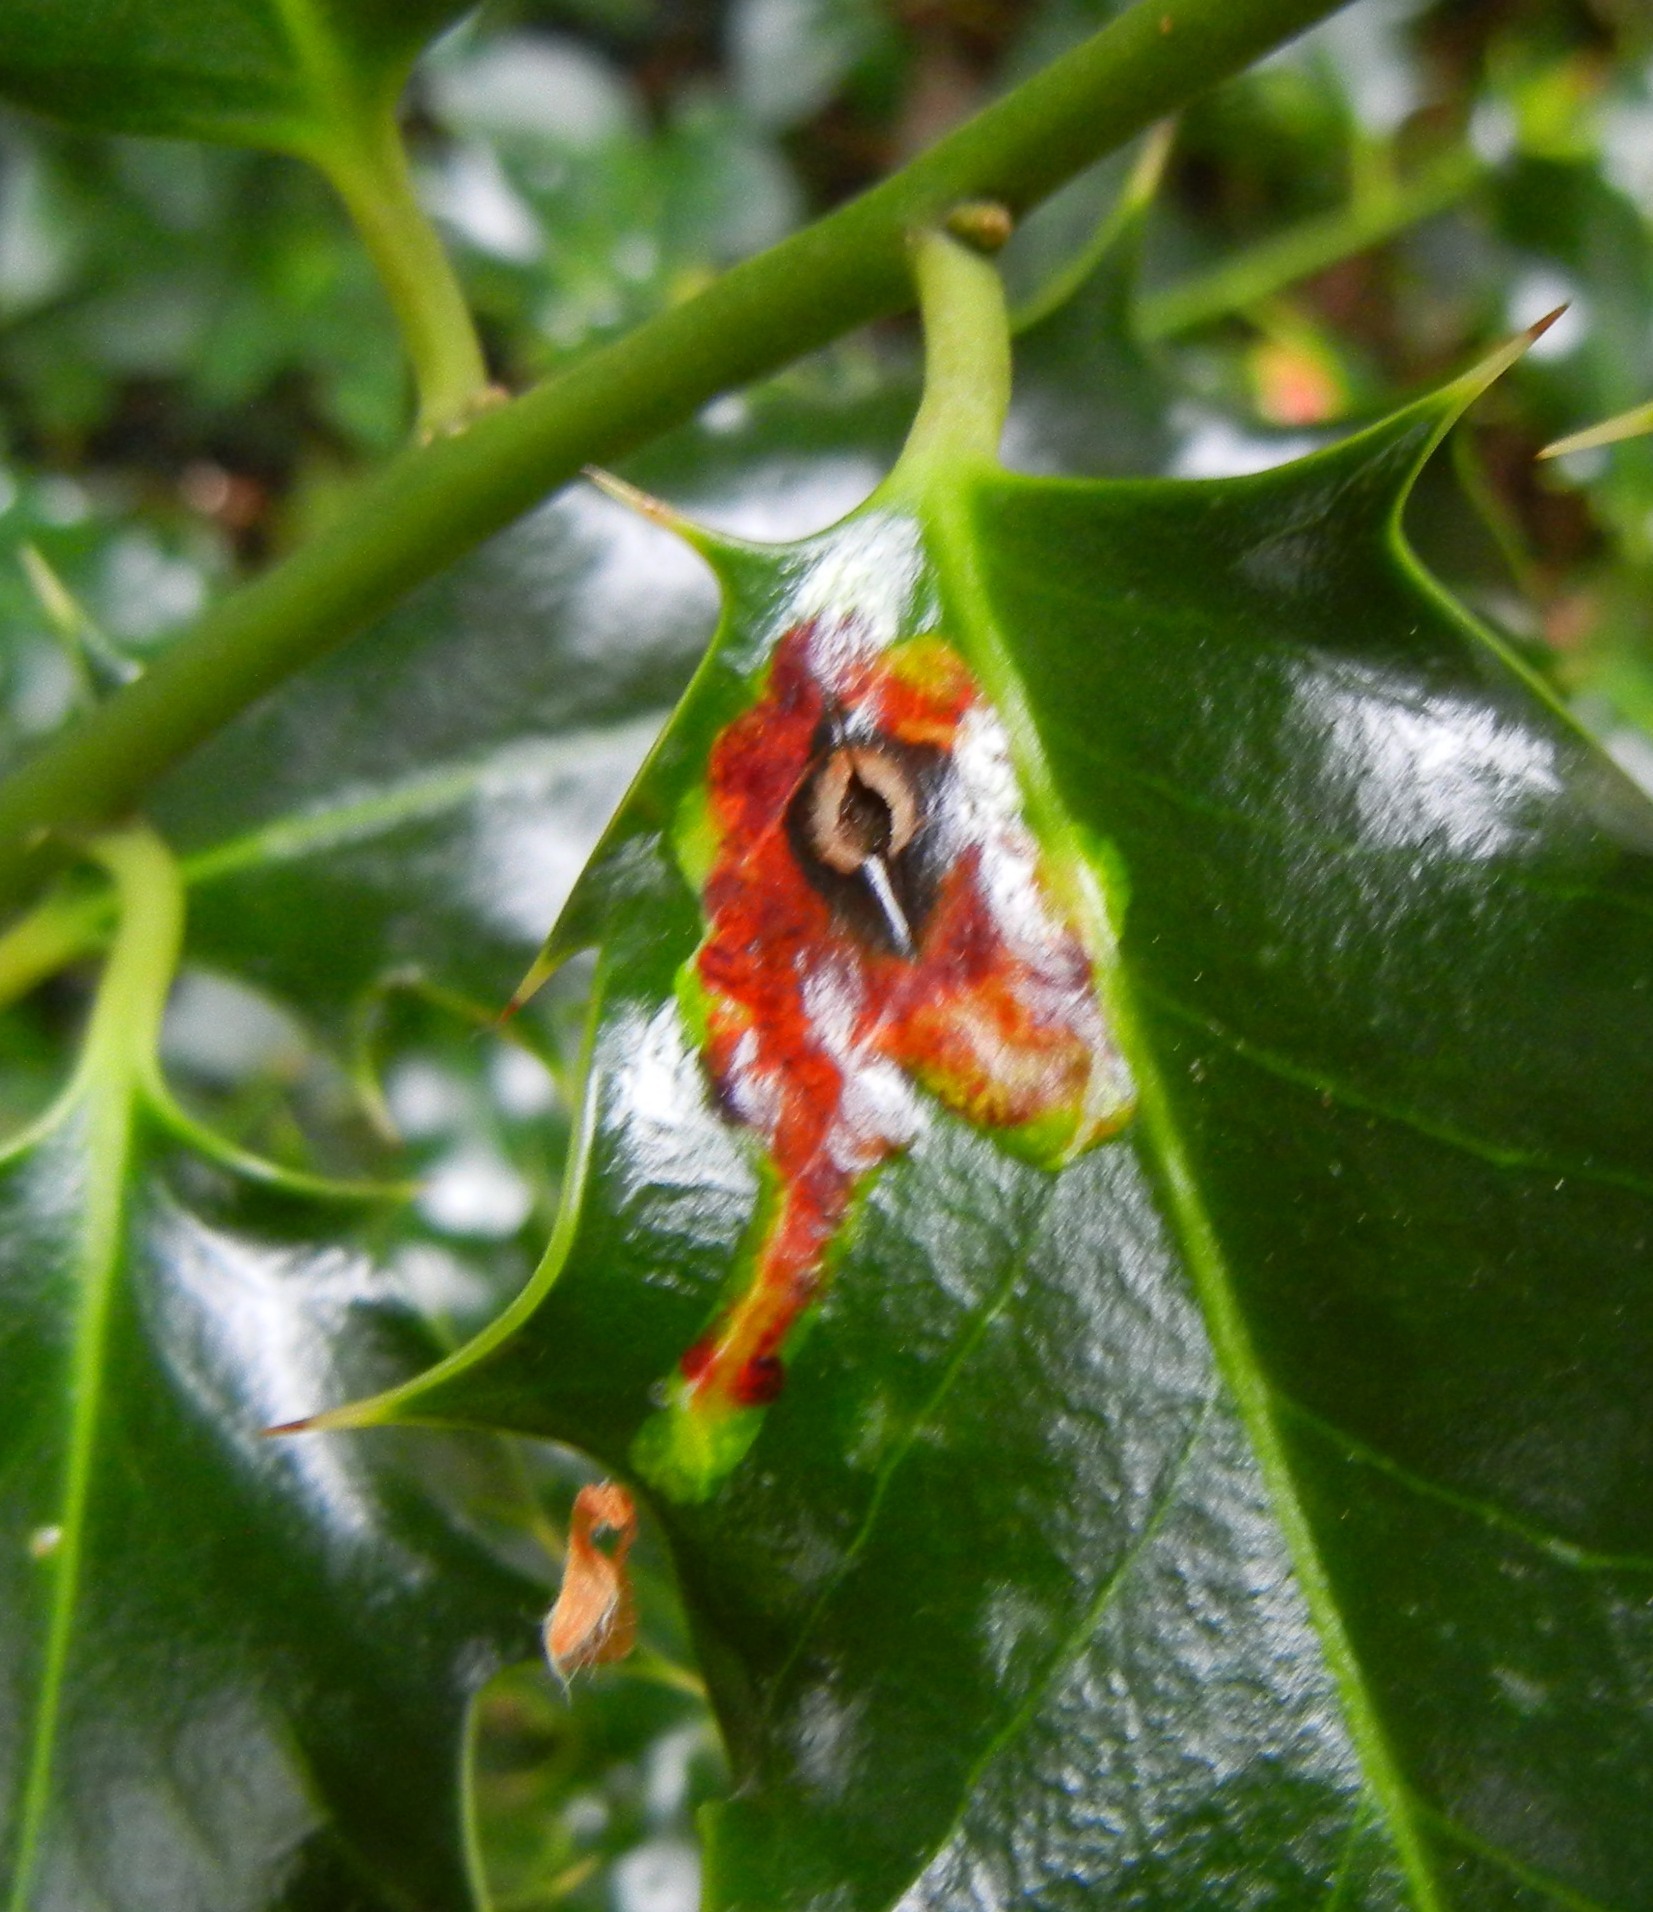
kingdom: Animalia
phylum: Arthropoda
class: Insecta
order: Diptera
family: Agromyzidae
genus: Phytomyza
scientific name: Phytomyza ilicis
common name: Holly leafminer
